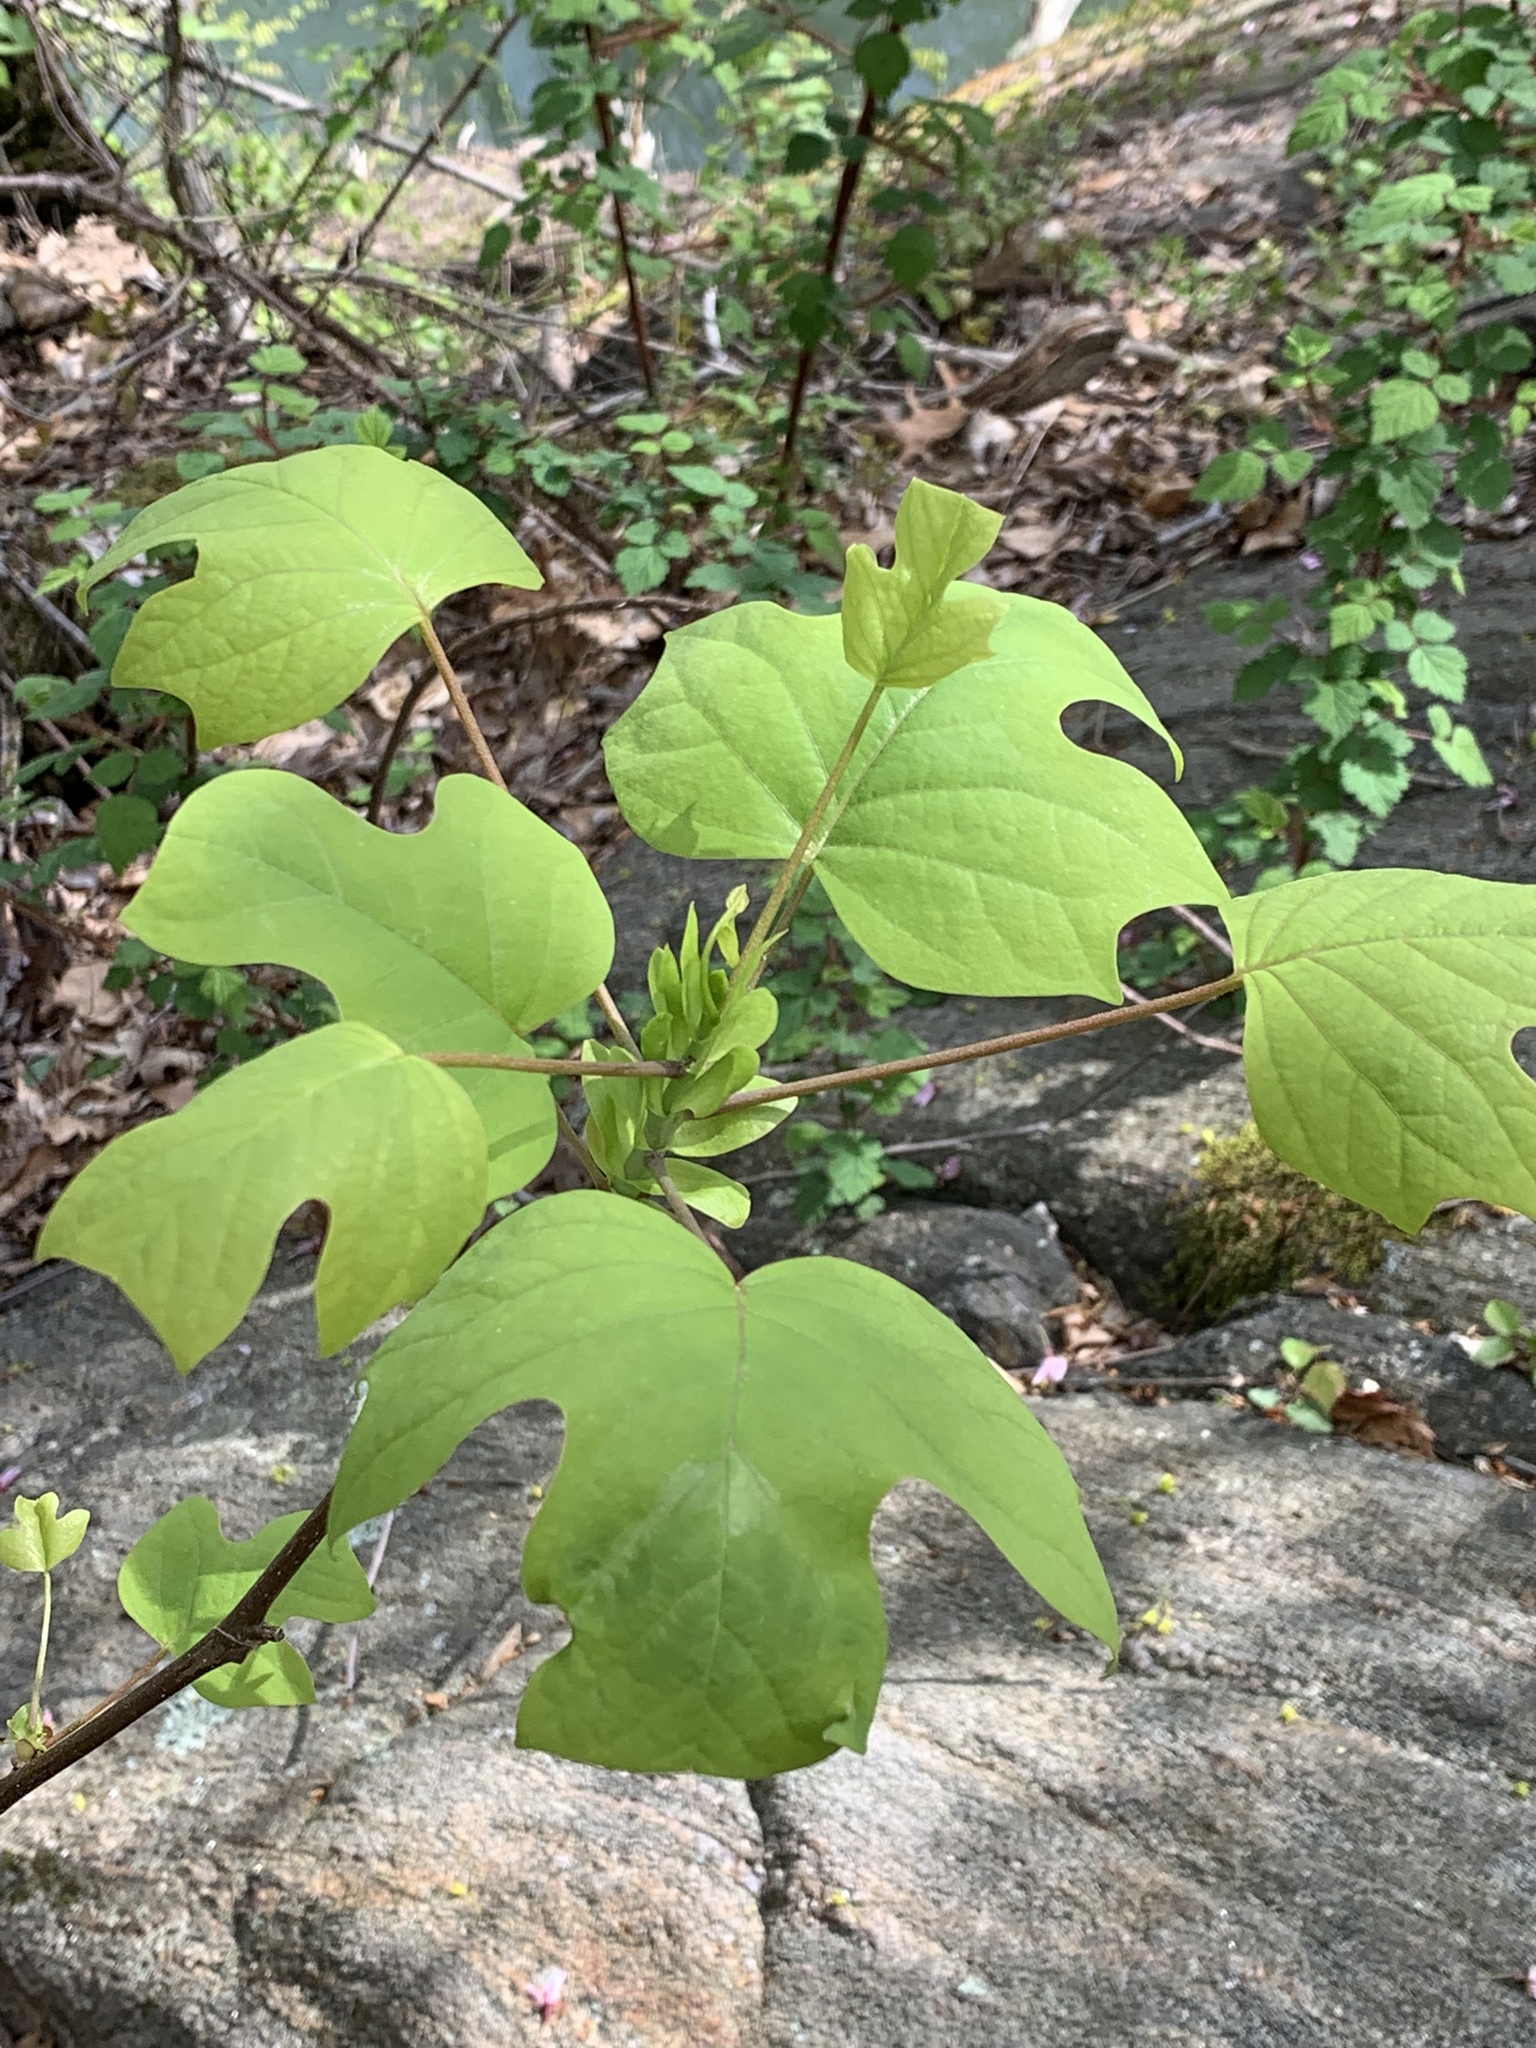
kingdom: Plantae
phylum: Tracheophyta
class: Magnoliopsida
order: Magnoliales
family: Magnoliaceae
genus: Liriodendron
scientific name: Liriodendron tulipifera
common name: Tulip tree
